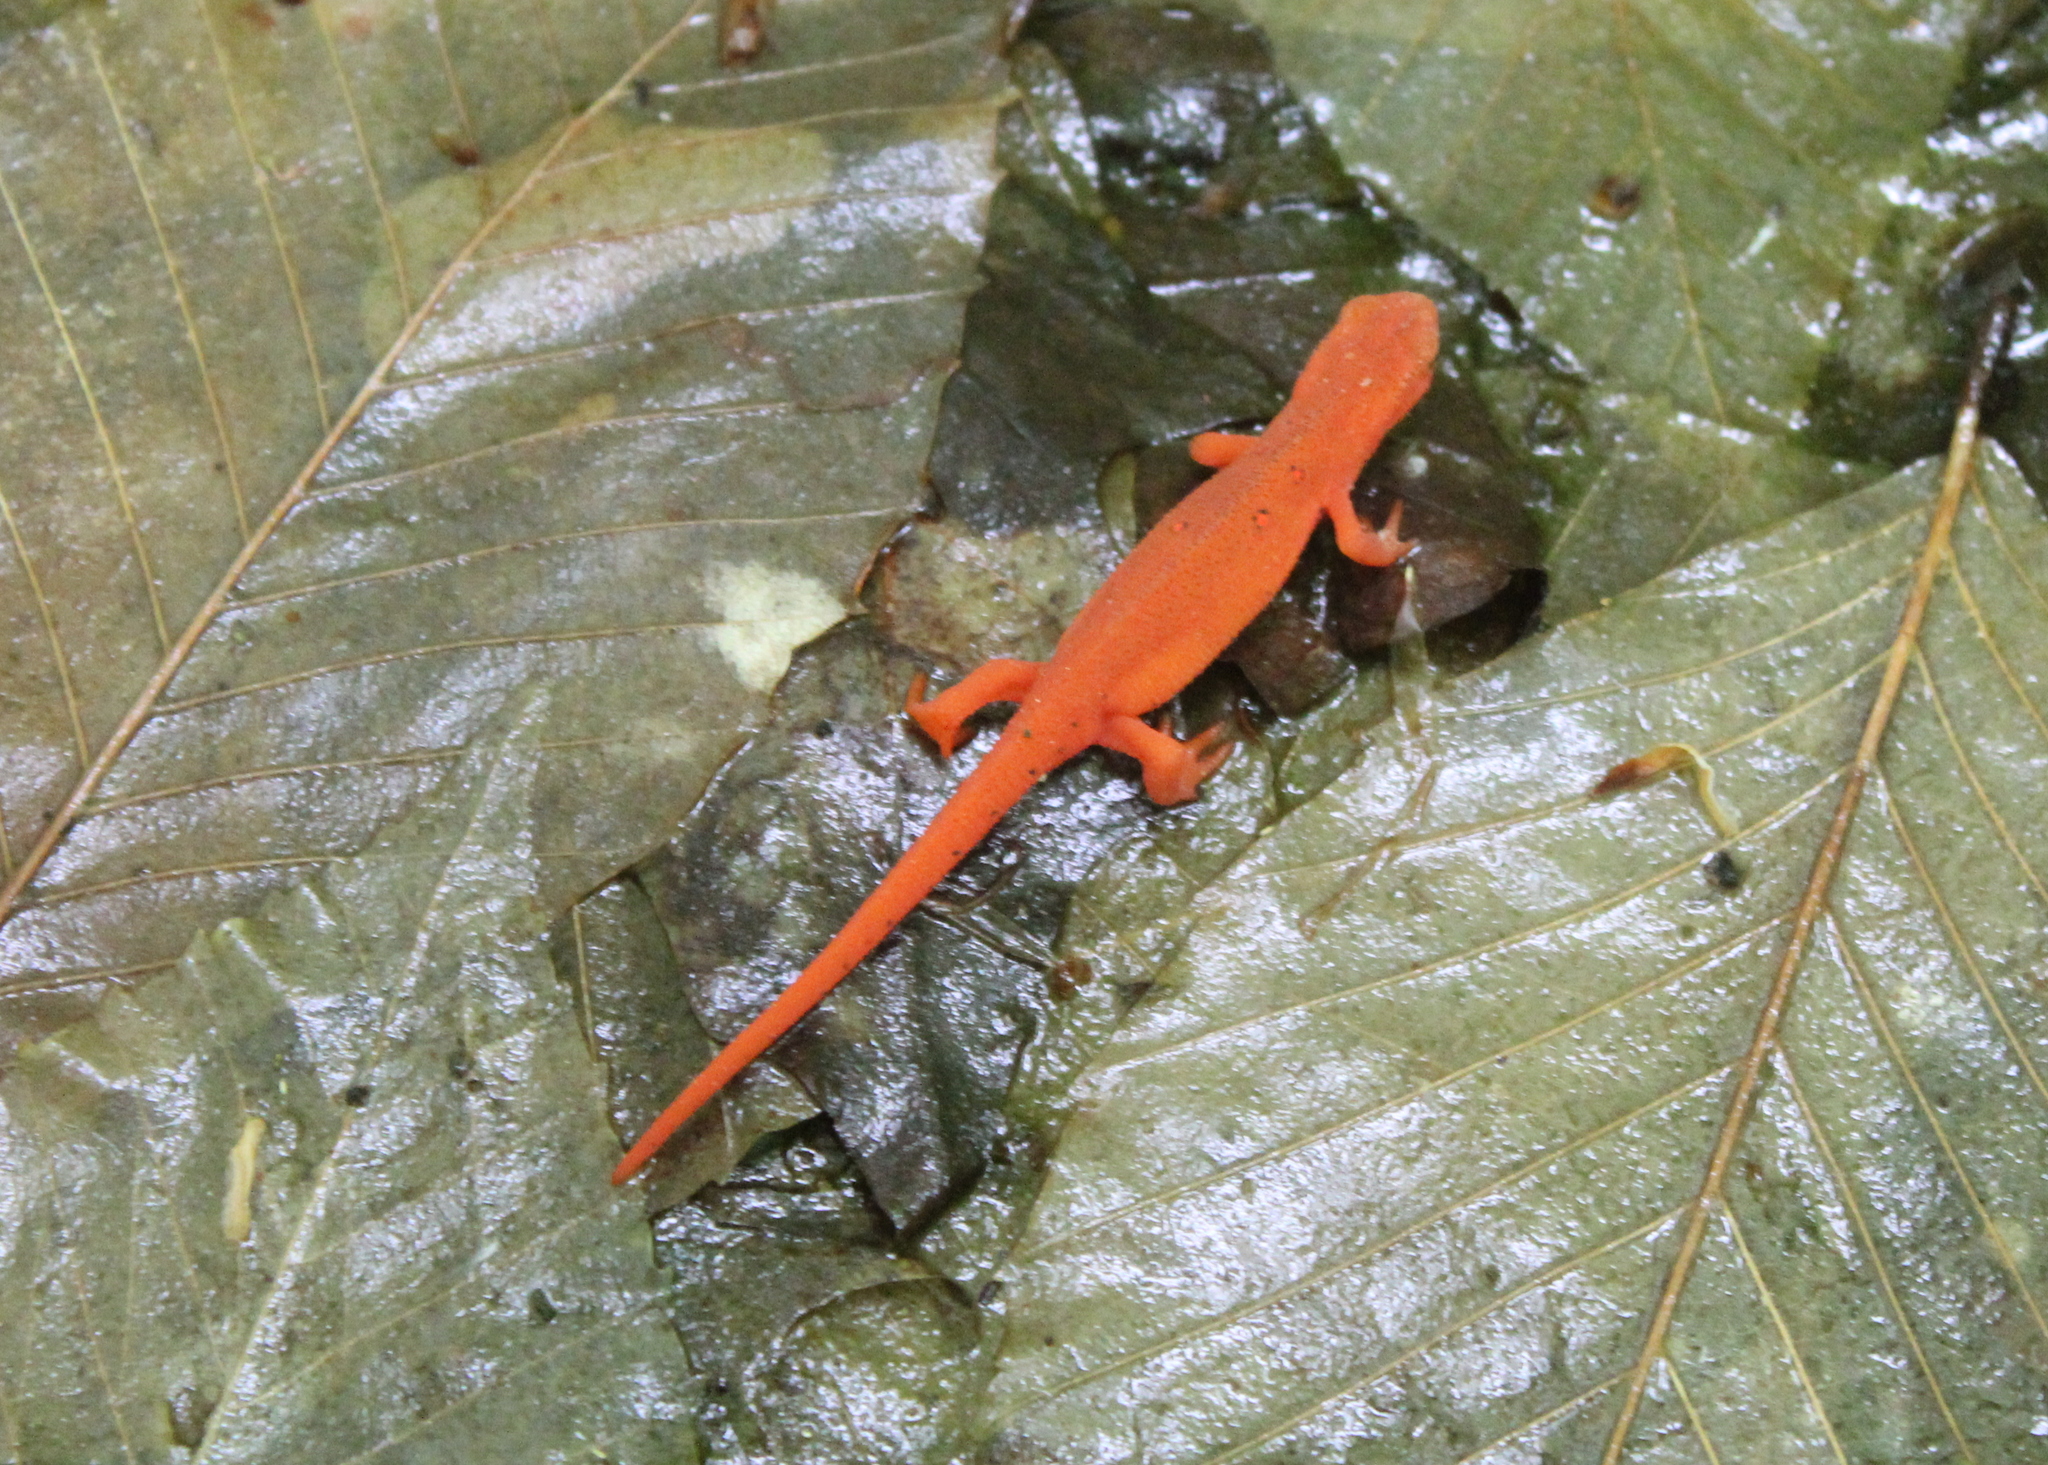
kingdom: Animalia
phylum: Chordata
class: Amphibia
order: Caudata
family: Salamandridae
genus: Notophthalmus
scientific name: Notophthalmus viridescens
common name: Eastern newt
